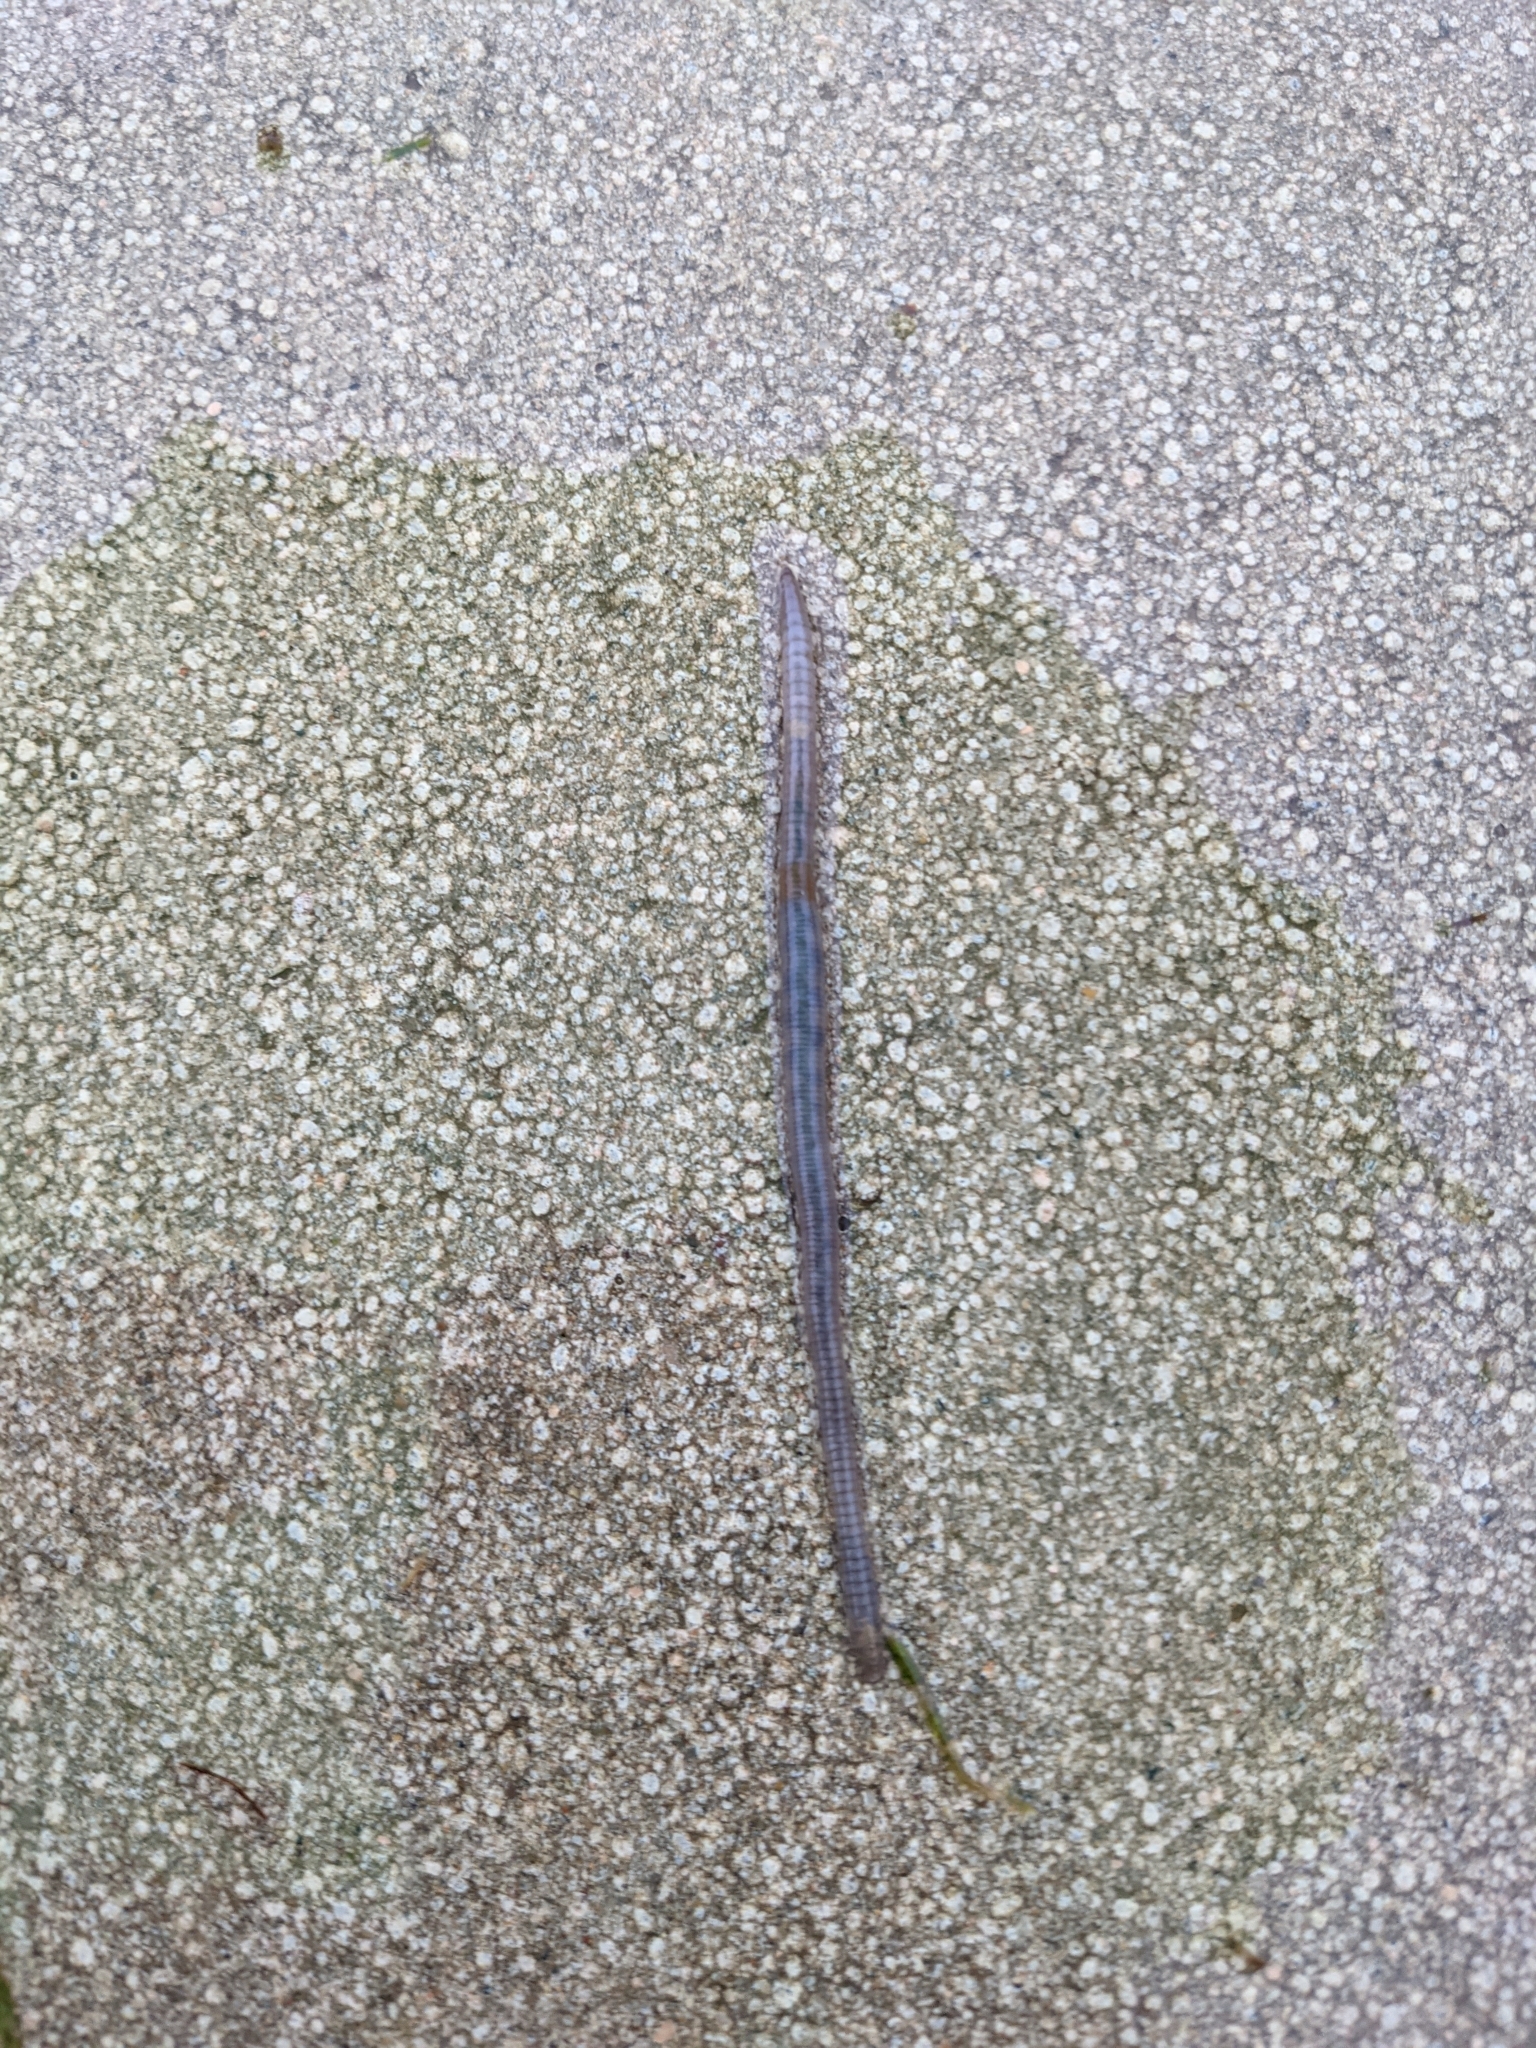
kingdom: Animalia
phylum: Annelida
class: Clitellata
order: Crassiclitellata
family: Lumbricidae
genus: Lumbricus
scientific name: Lumbricus terrestris
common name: Common earthworm
